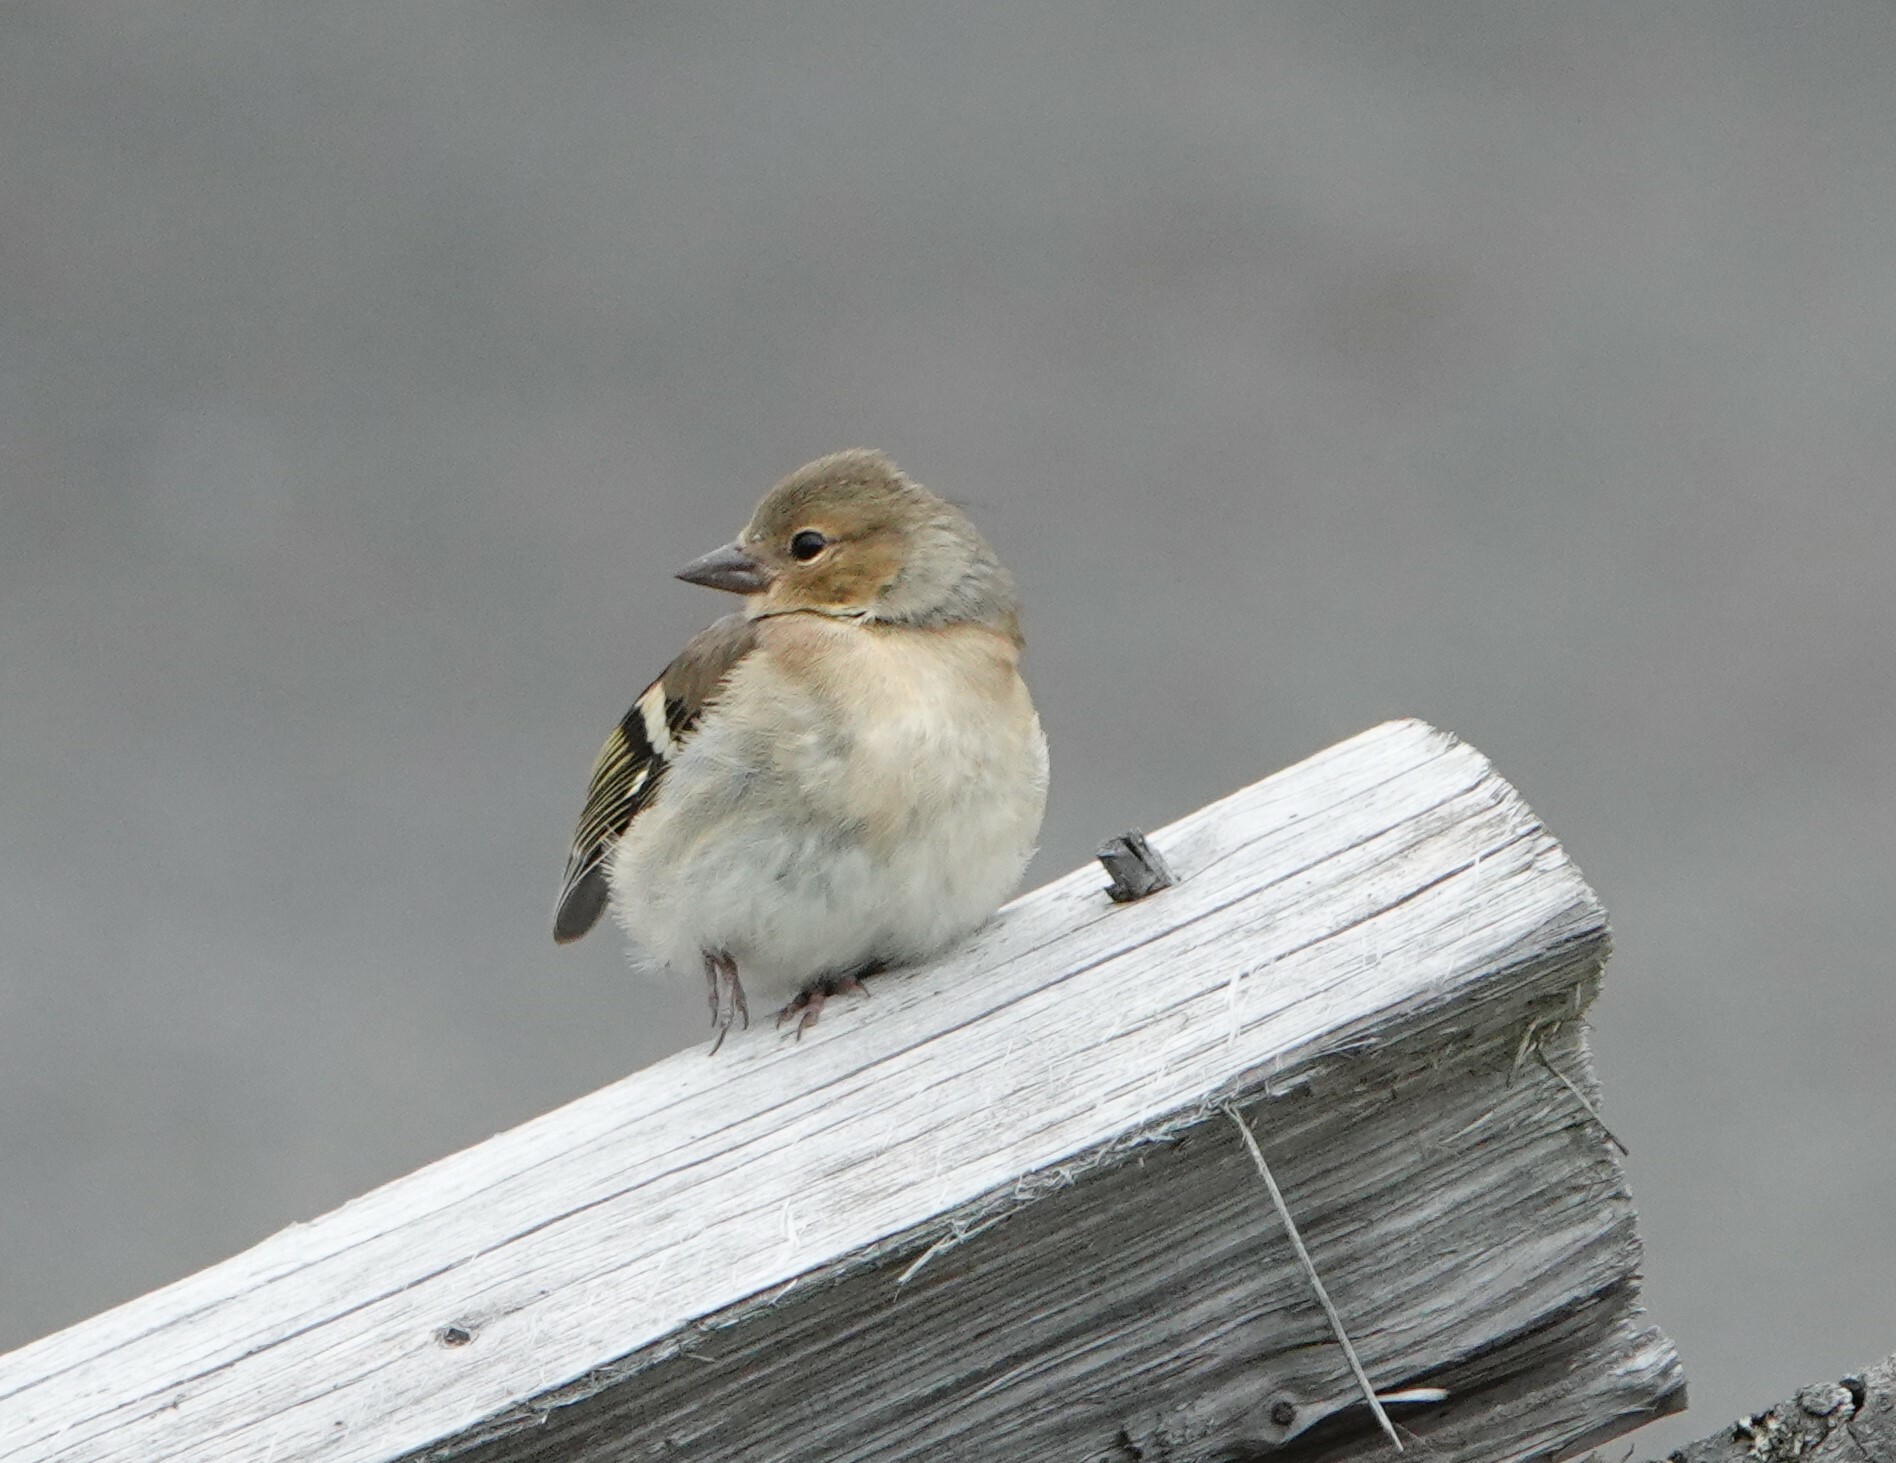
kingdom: Animalia
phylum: Chordata
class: Aves
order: Passeriformes
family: Fringillidae
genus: Fringilla
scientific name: Fringilla coelebs
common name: Common chaffinch
